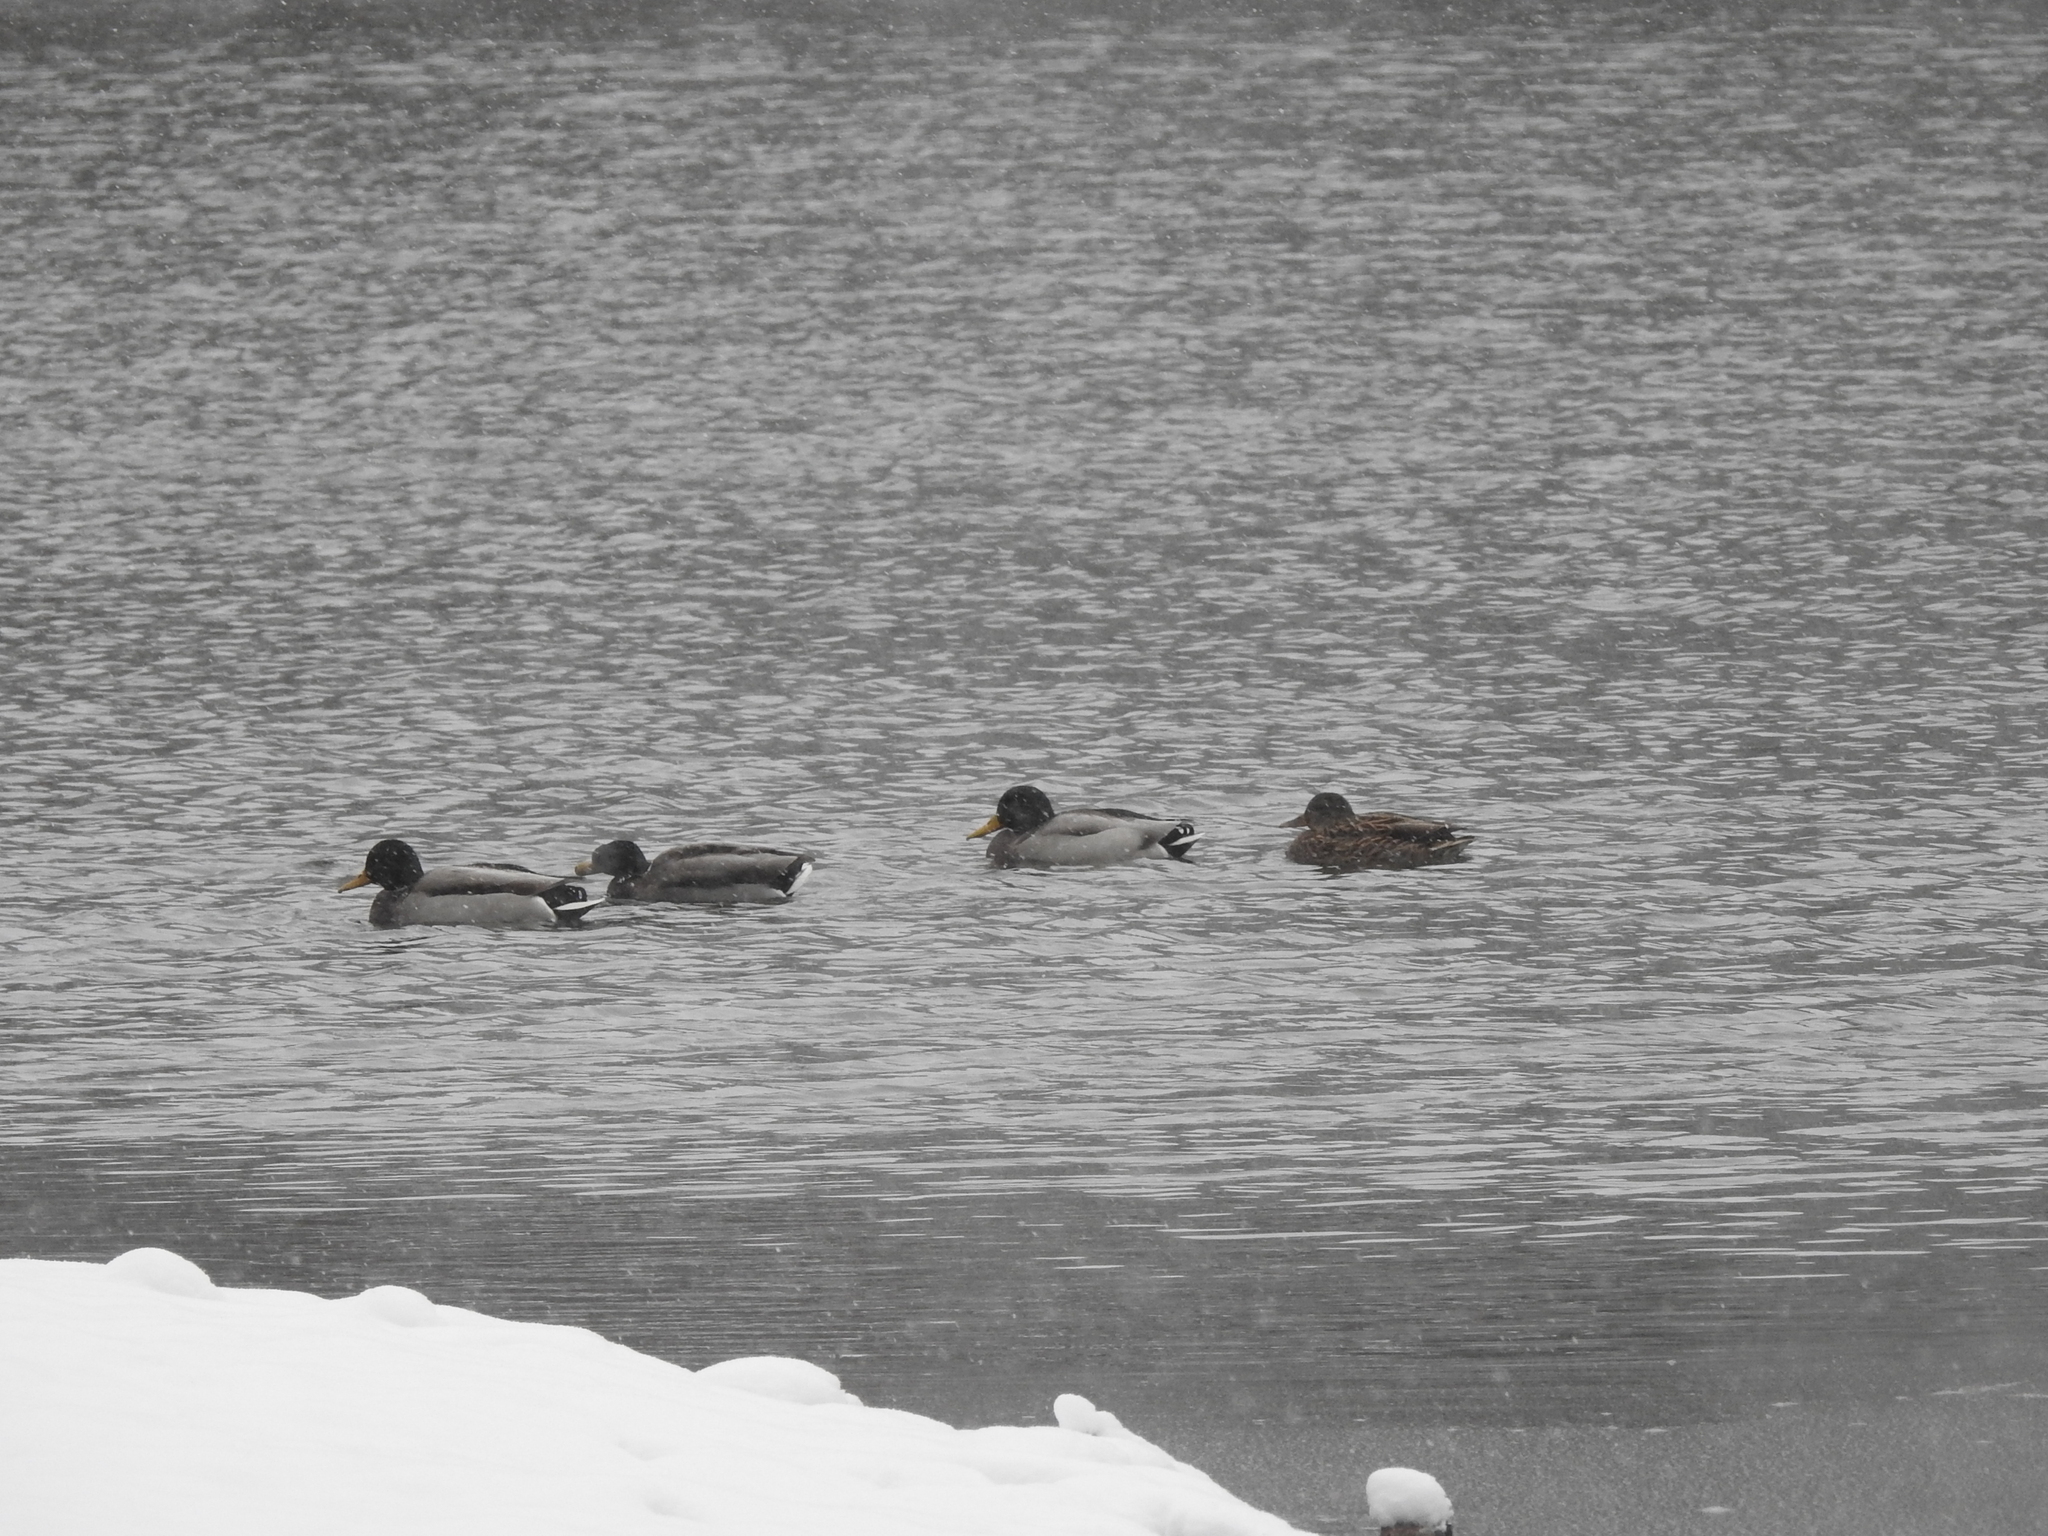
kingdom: Animalia
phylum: Chordata
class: Aves
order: Anseriformes
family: Anatidae
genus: Anas
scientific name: Anas platyrhynchos
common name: Mallard
